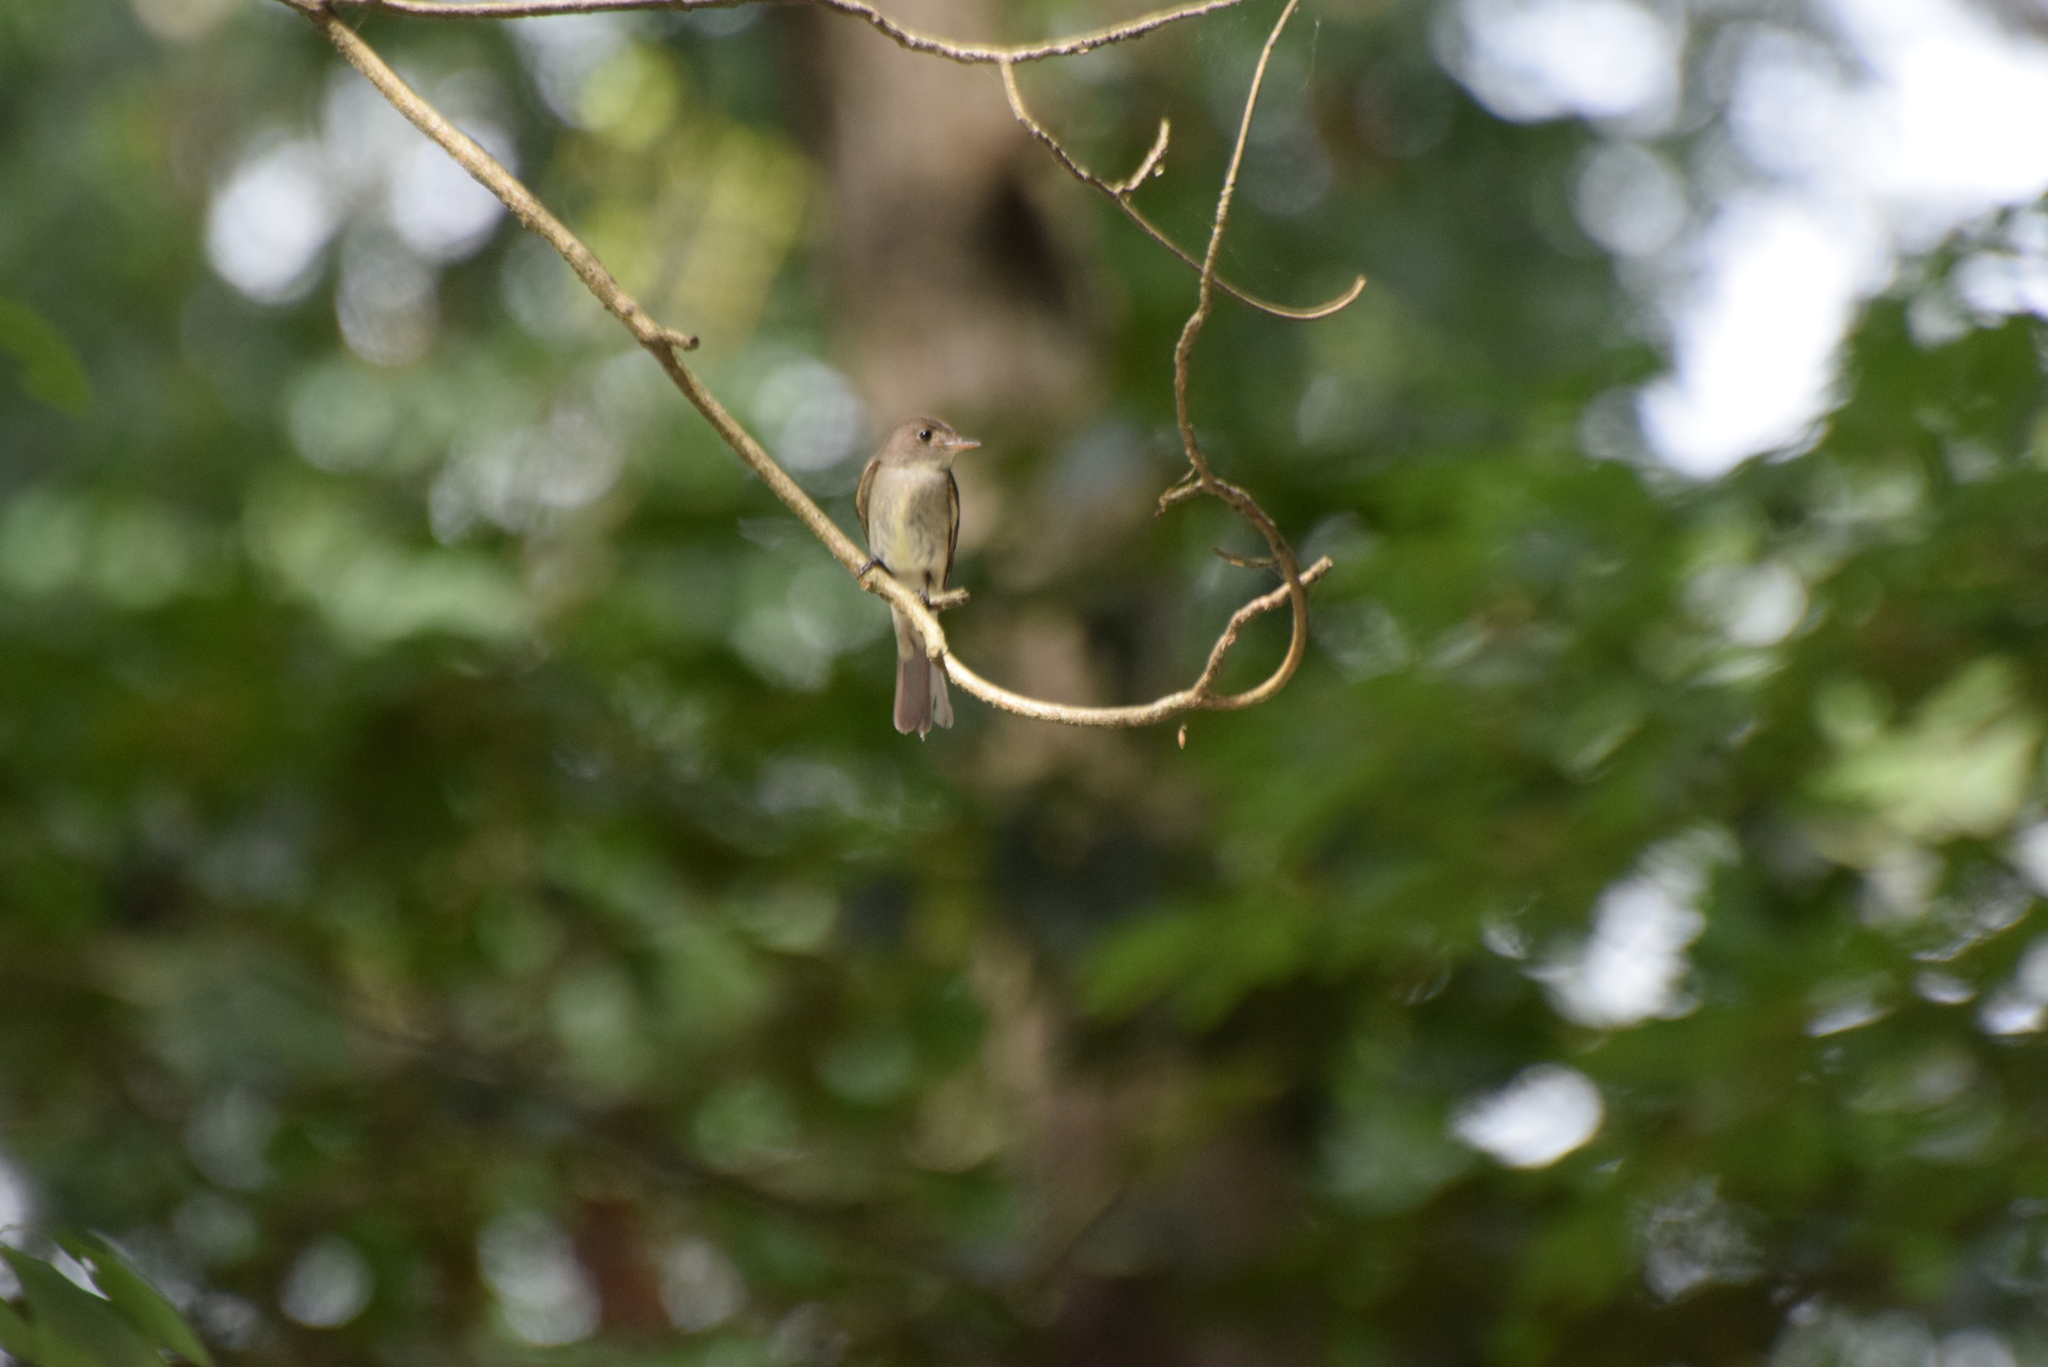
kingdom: Animalia
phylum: Chordata
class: Aves
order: Passeriformes
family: Tyrannidae
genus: Contopus
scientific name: Contopus virens
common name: Eastern wood-pewee
